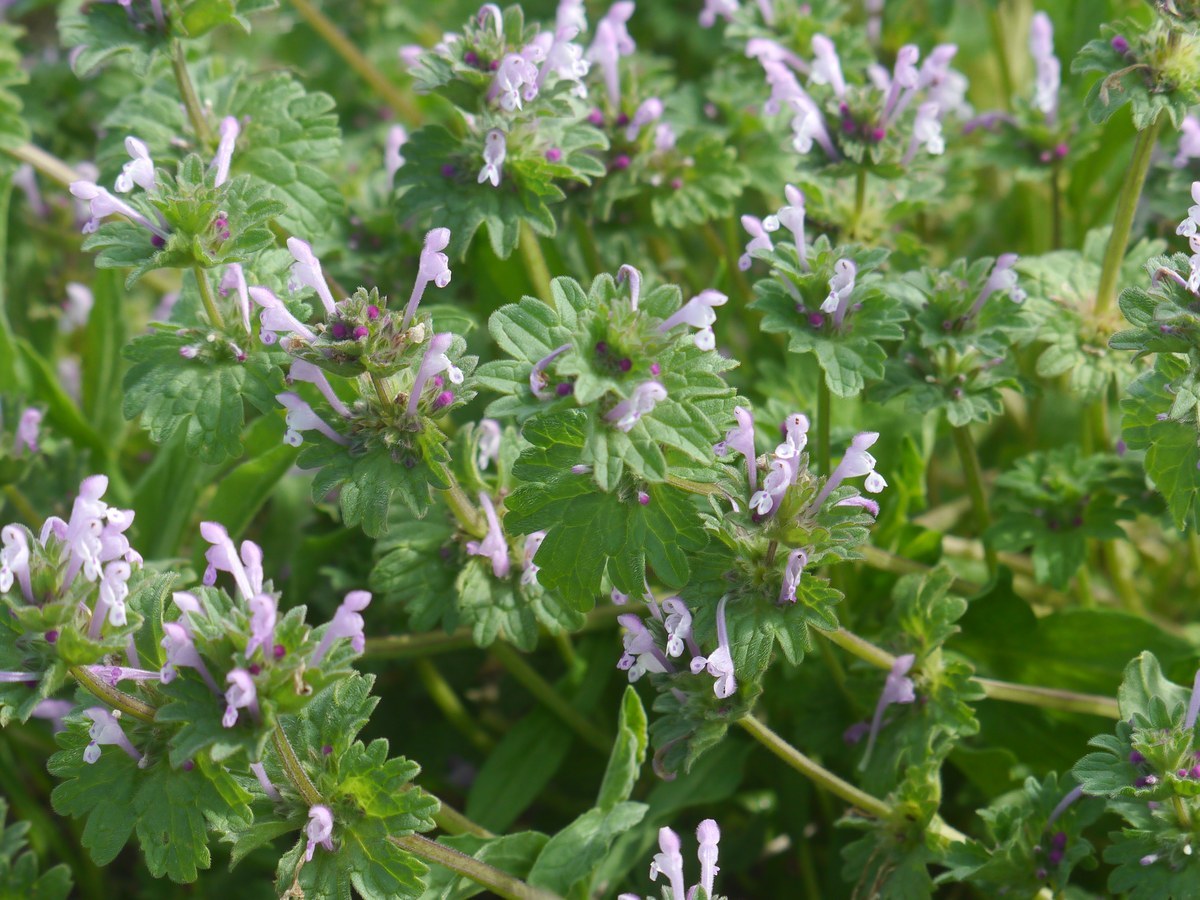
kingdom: Plantae
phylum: Tracheophyta
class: Magnoliopsida
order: Lamiales
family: Lamiaceae
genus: Lamium
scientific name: Lamium amplexicaule
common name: Henbit dead-nettle
